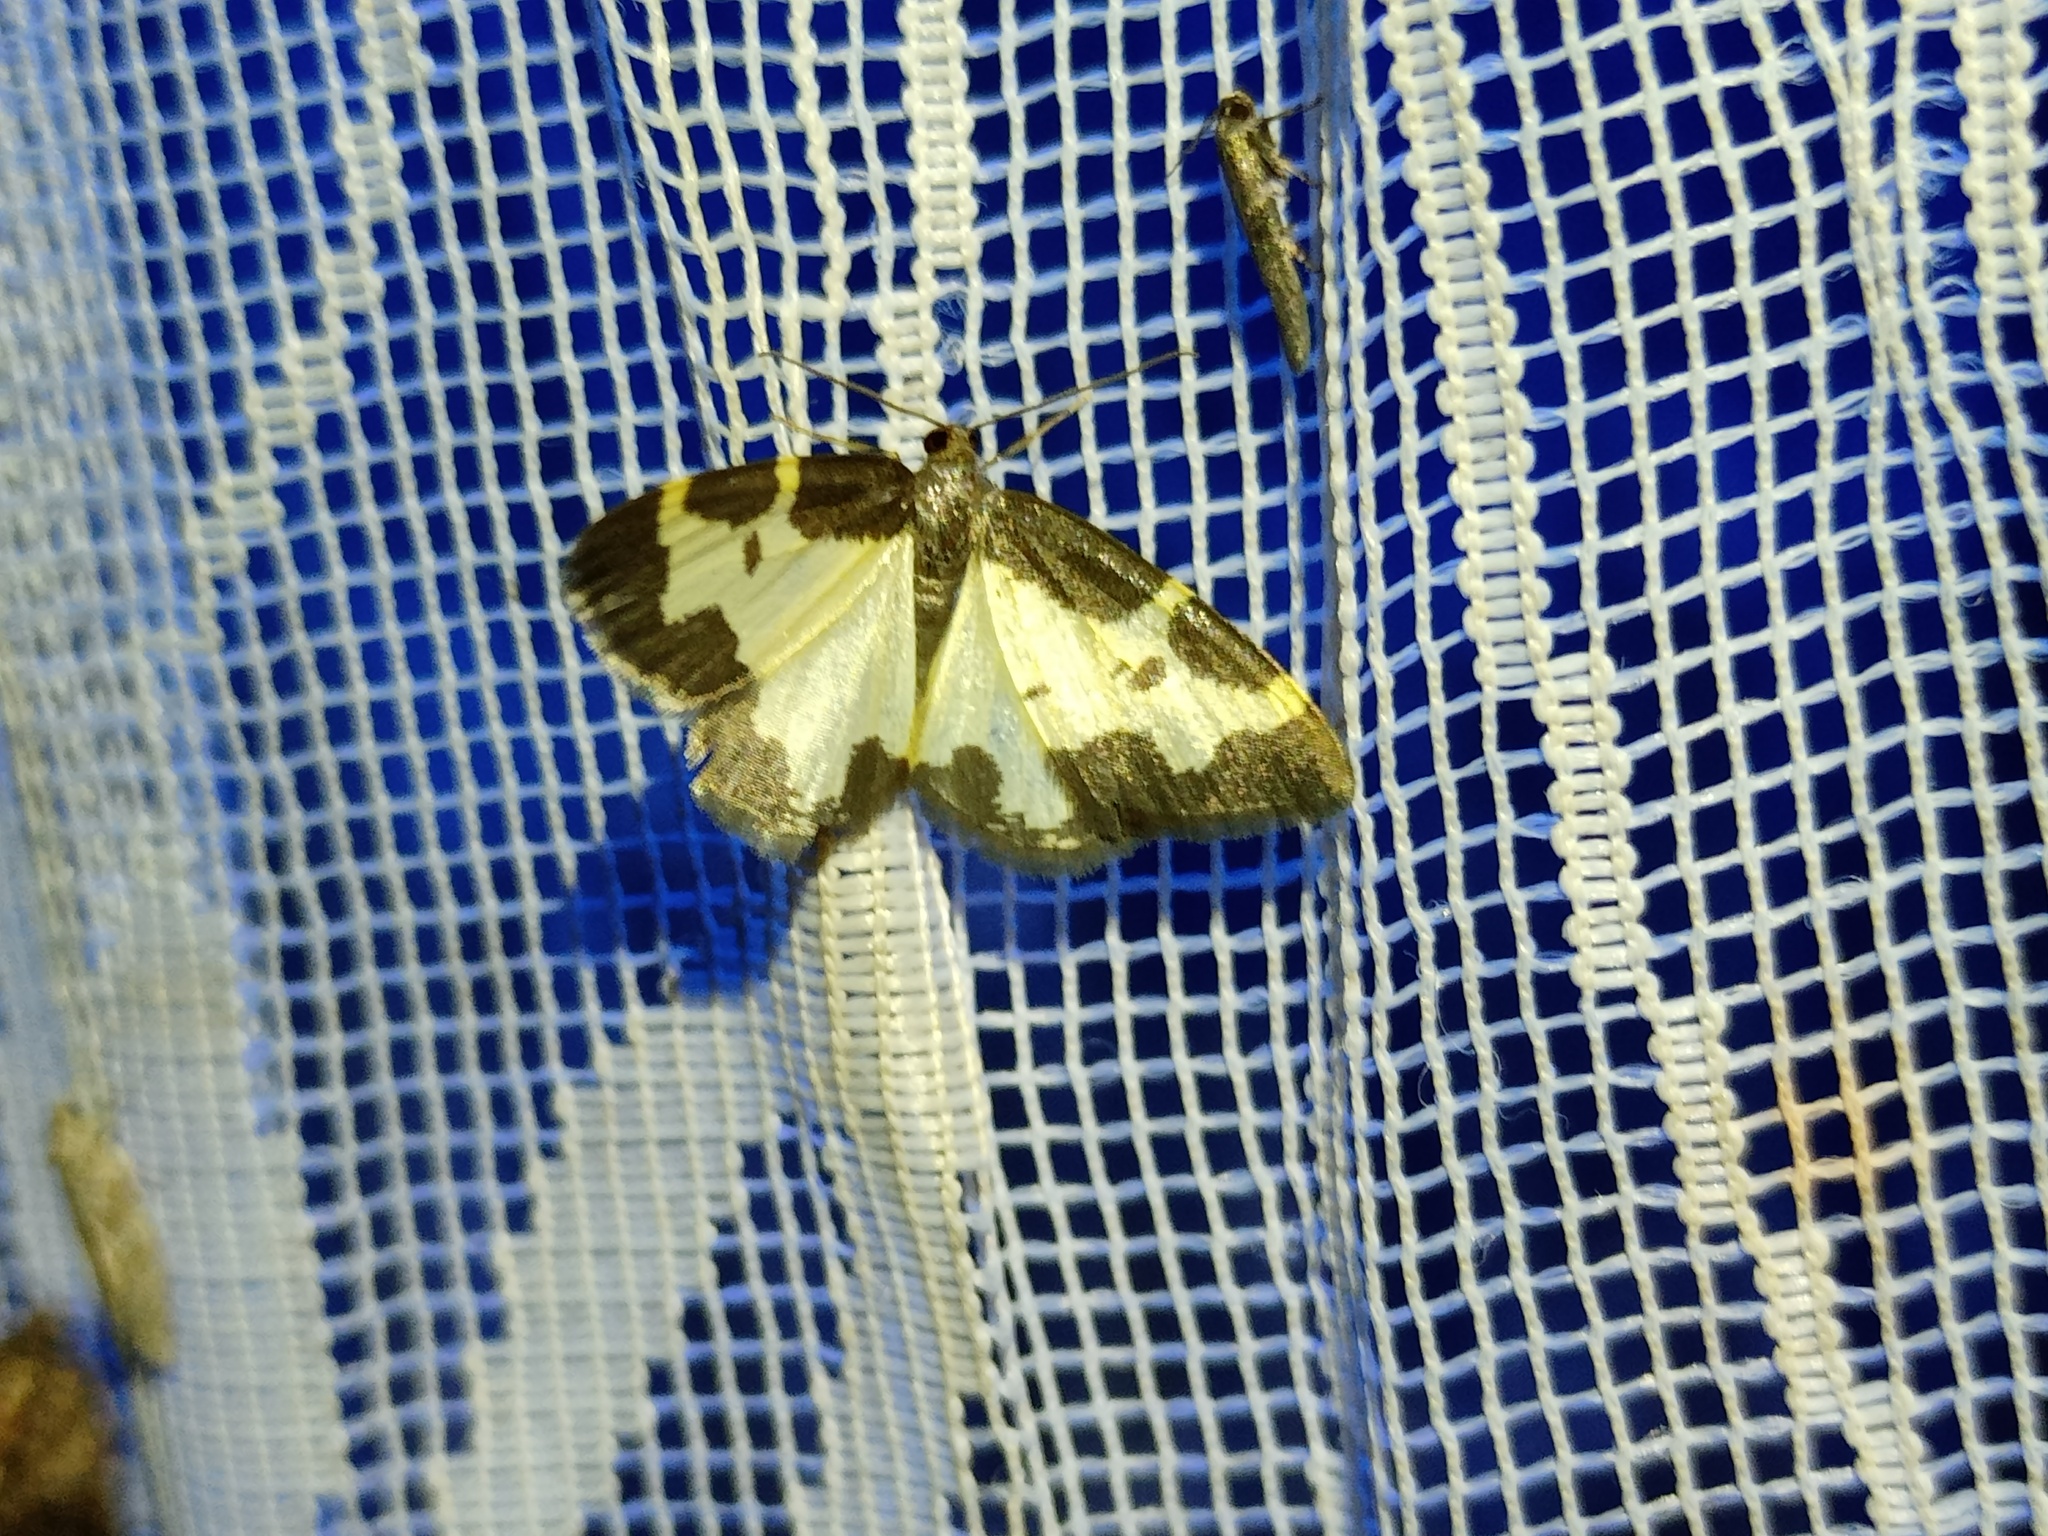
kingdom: Animalia
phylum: Arthropoda
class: Insecta
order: Lepidoptera
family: Geometridae
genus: Lomaspilis
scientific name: Lomaspilis marginata
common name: Clouded border
